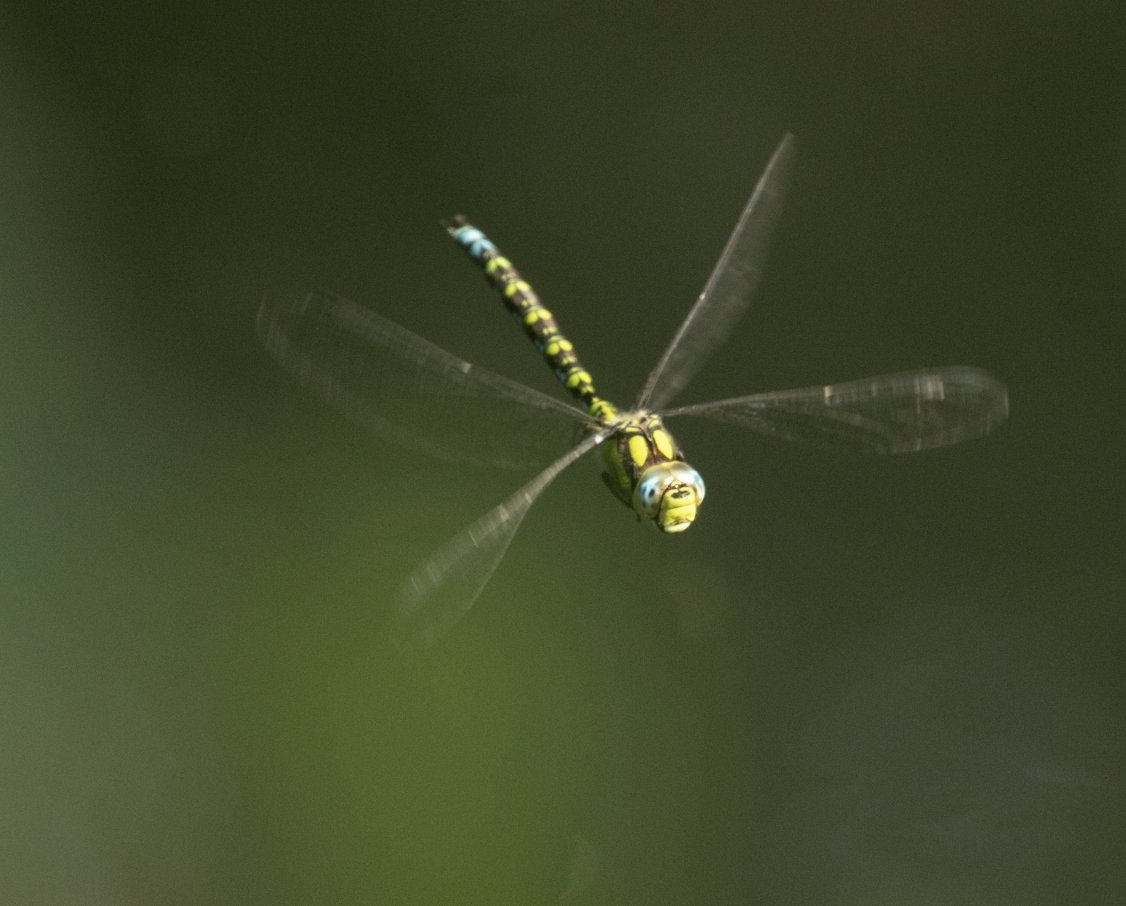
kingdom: Animalia
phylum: Arthropoda
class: Insecta
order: Odonata
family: Aeshnidae
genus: Aeshna
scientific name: Aeshna cyanea
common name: Southern hawker
